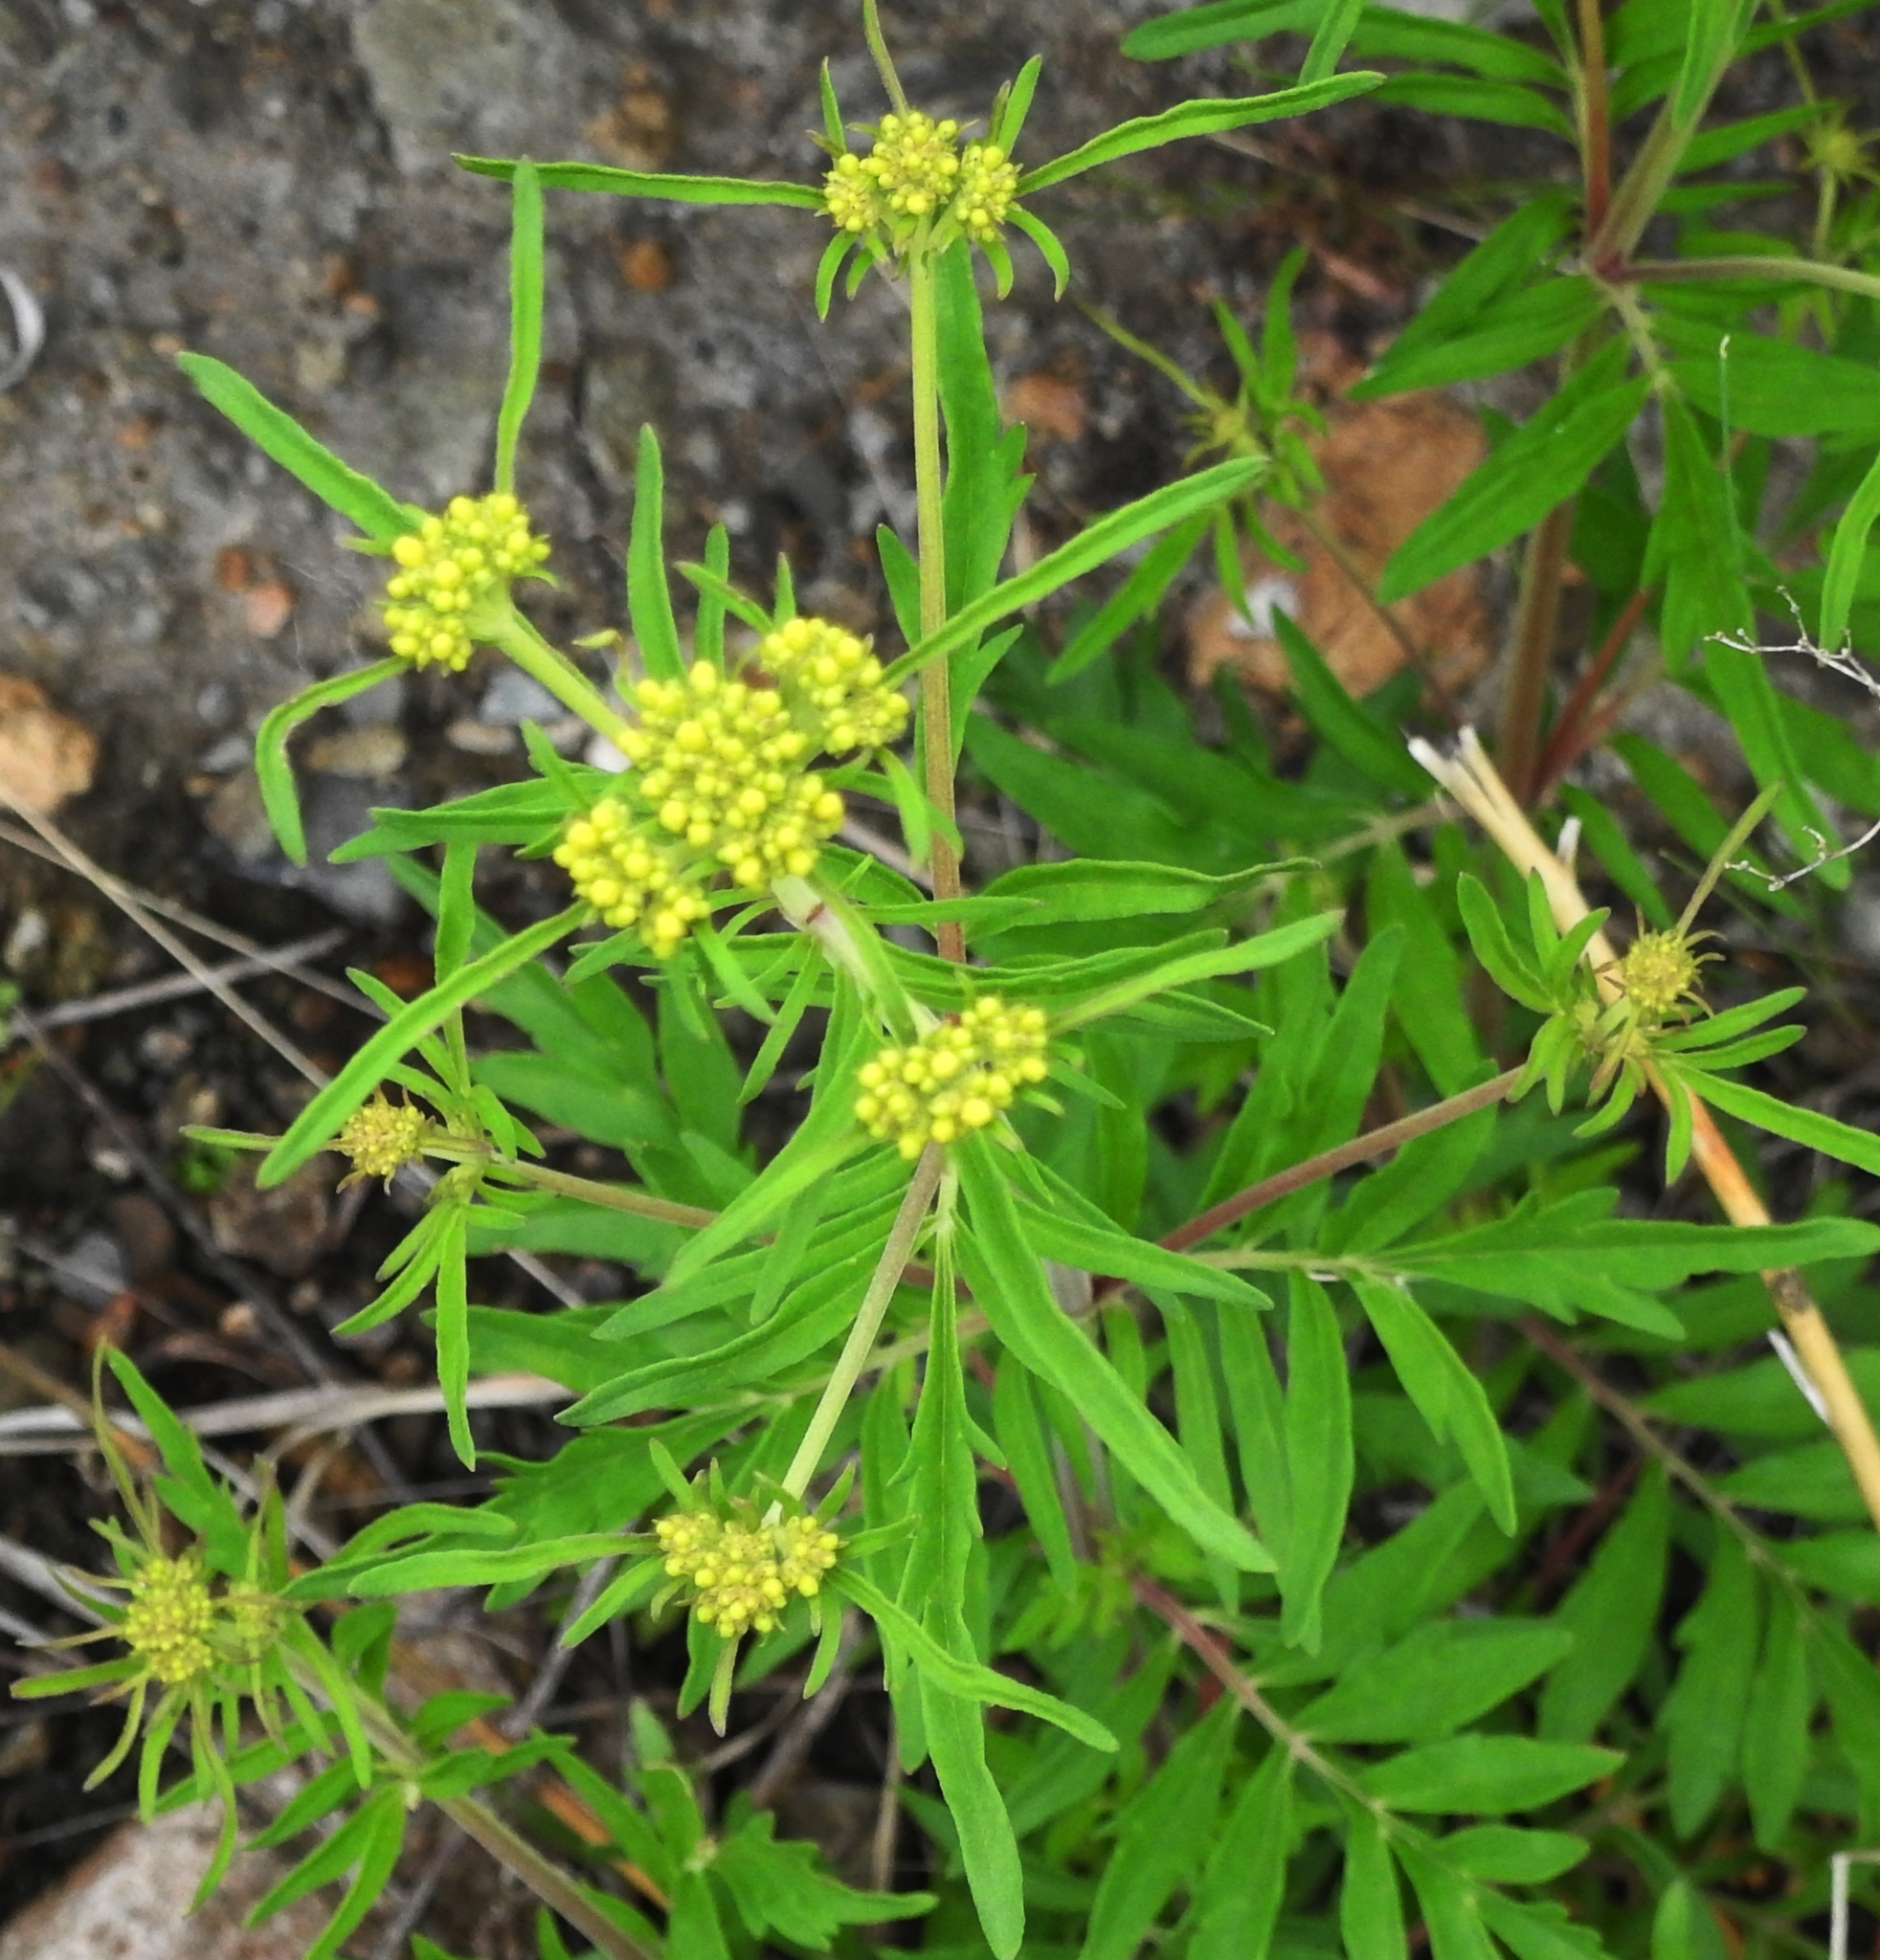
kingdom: Plantae
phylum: Tracheophyta
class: Magnoliopsida
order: Dipsacales
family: Caprifoliaceae
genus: Patrinia
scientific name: Patrinia rupestris
